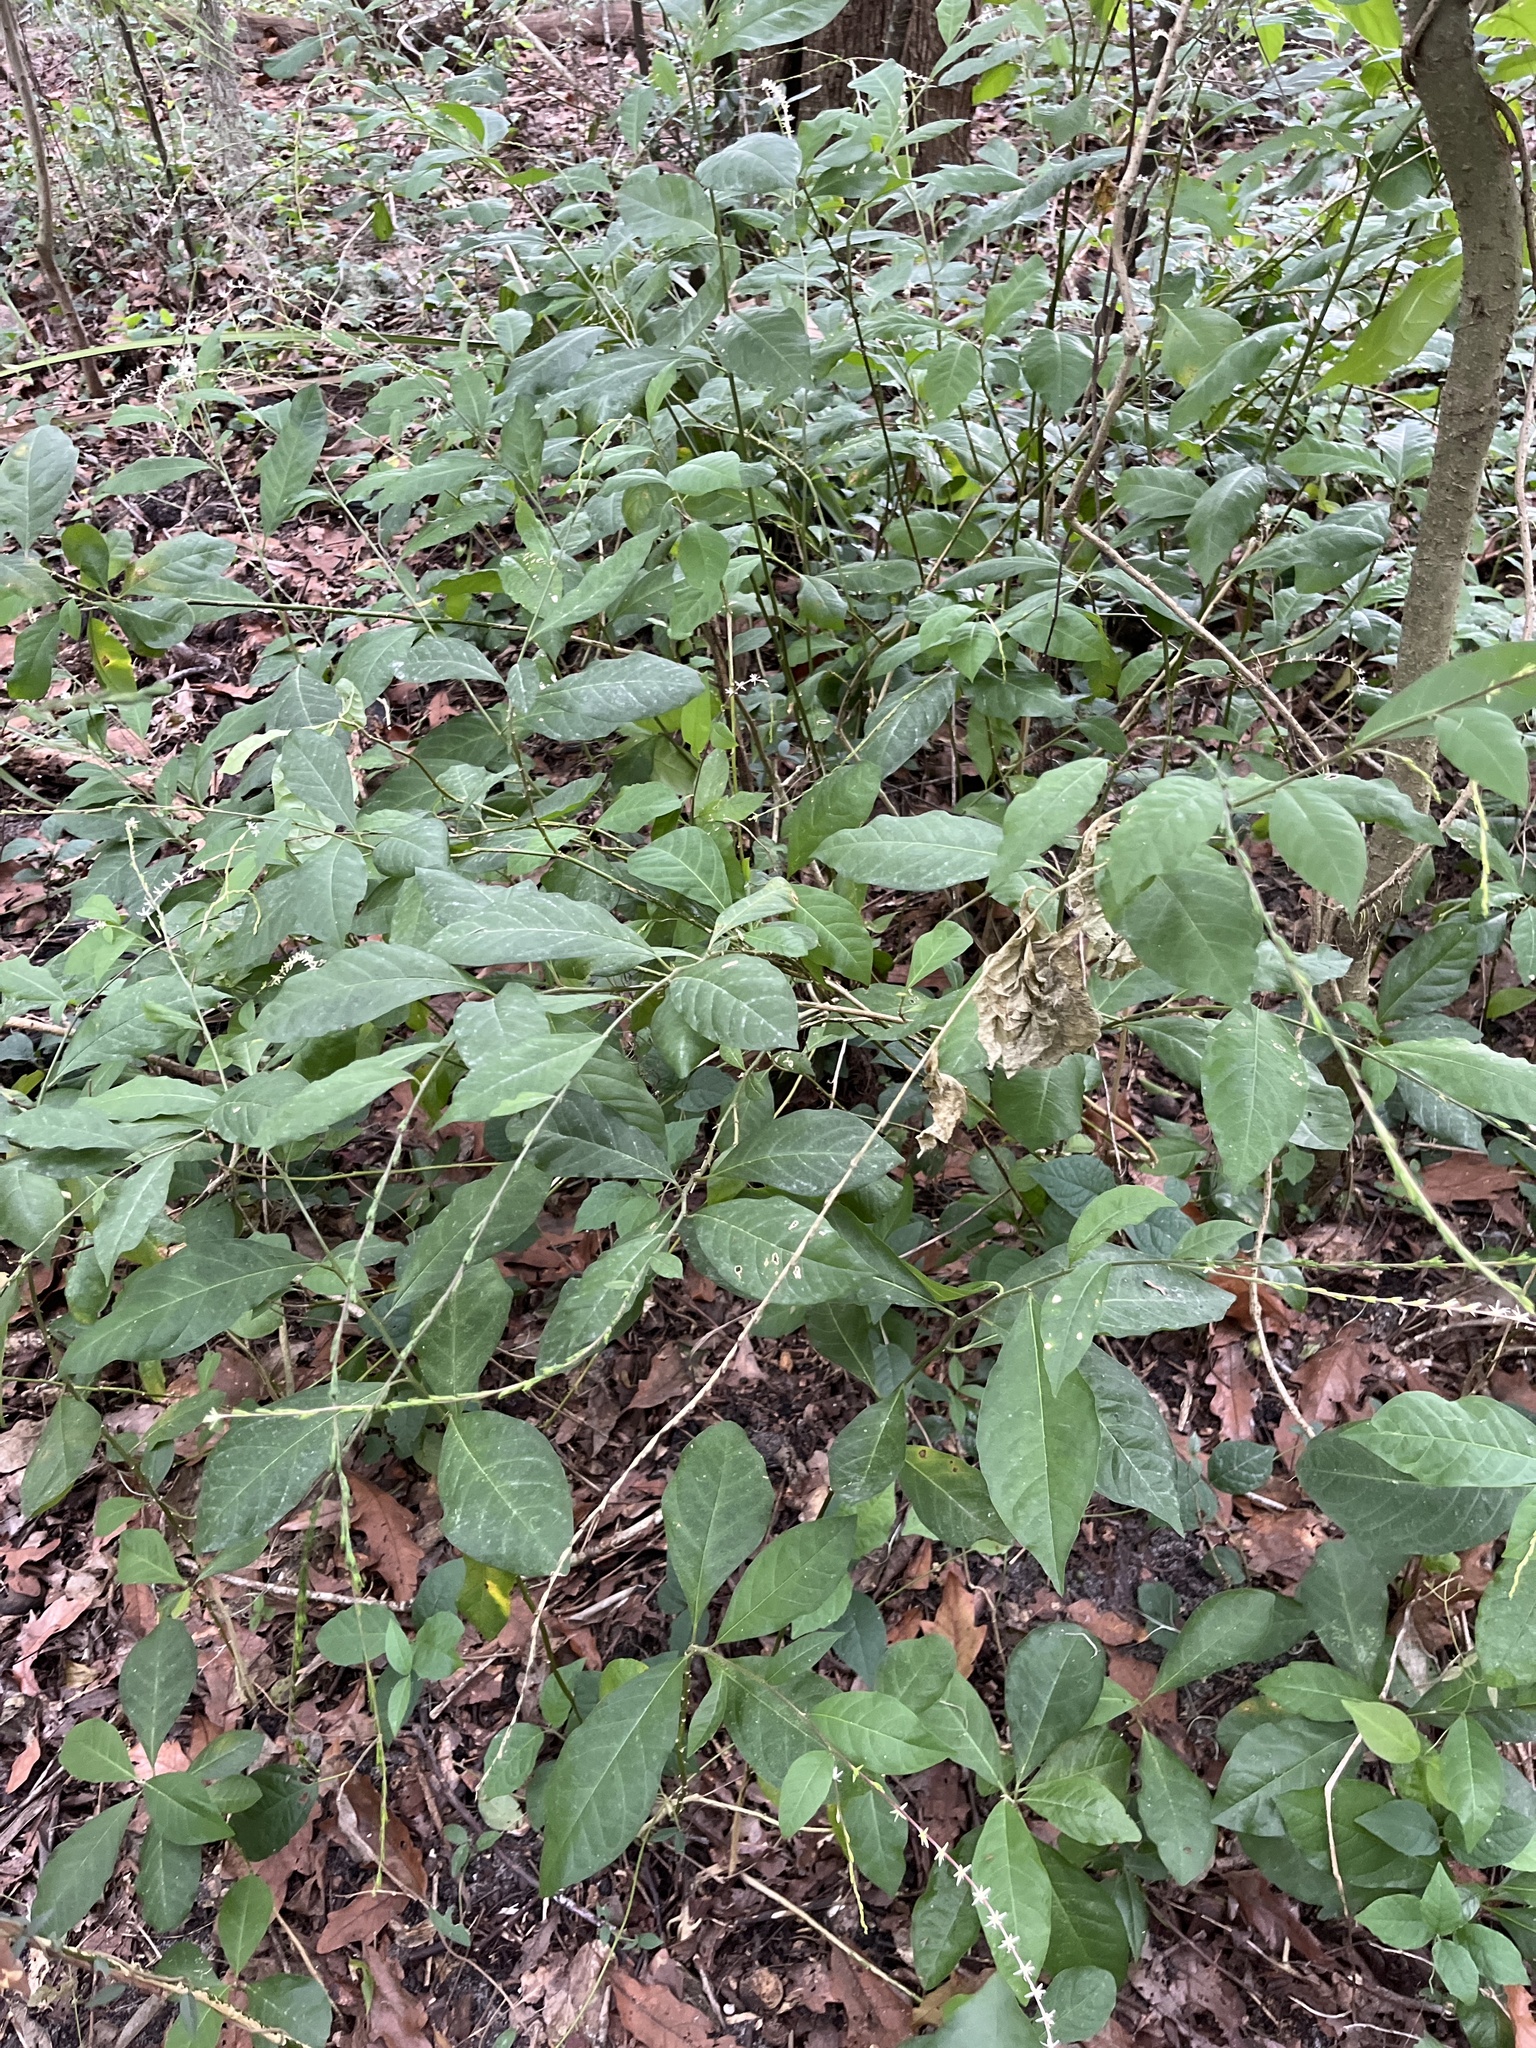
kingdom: Plantae
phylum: Tracheophyta
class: Magnoliopsida
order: Caryophyllales
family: Phytolaccaceae
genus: Petiveria
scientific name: Petiveria alliacea
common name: Garlicweed
